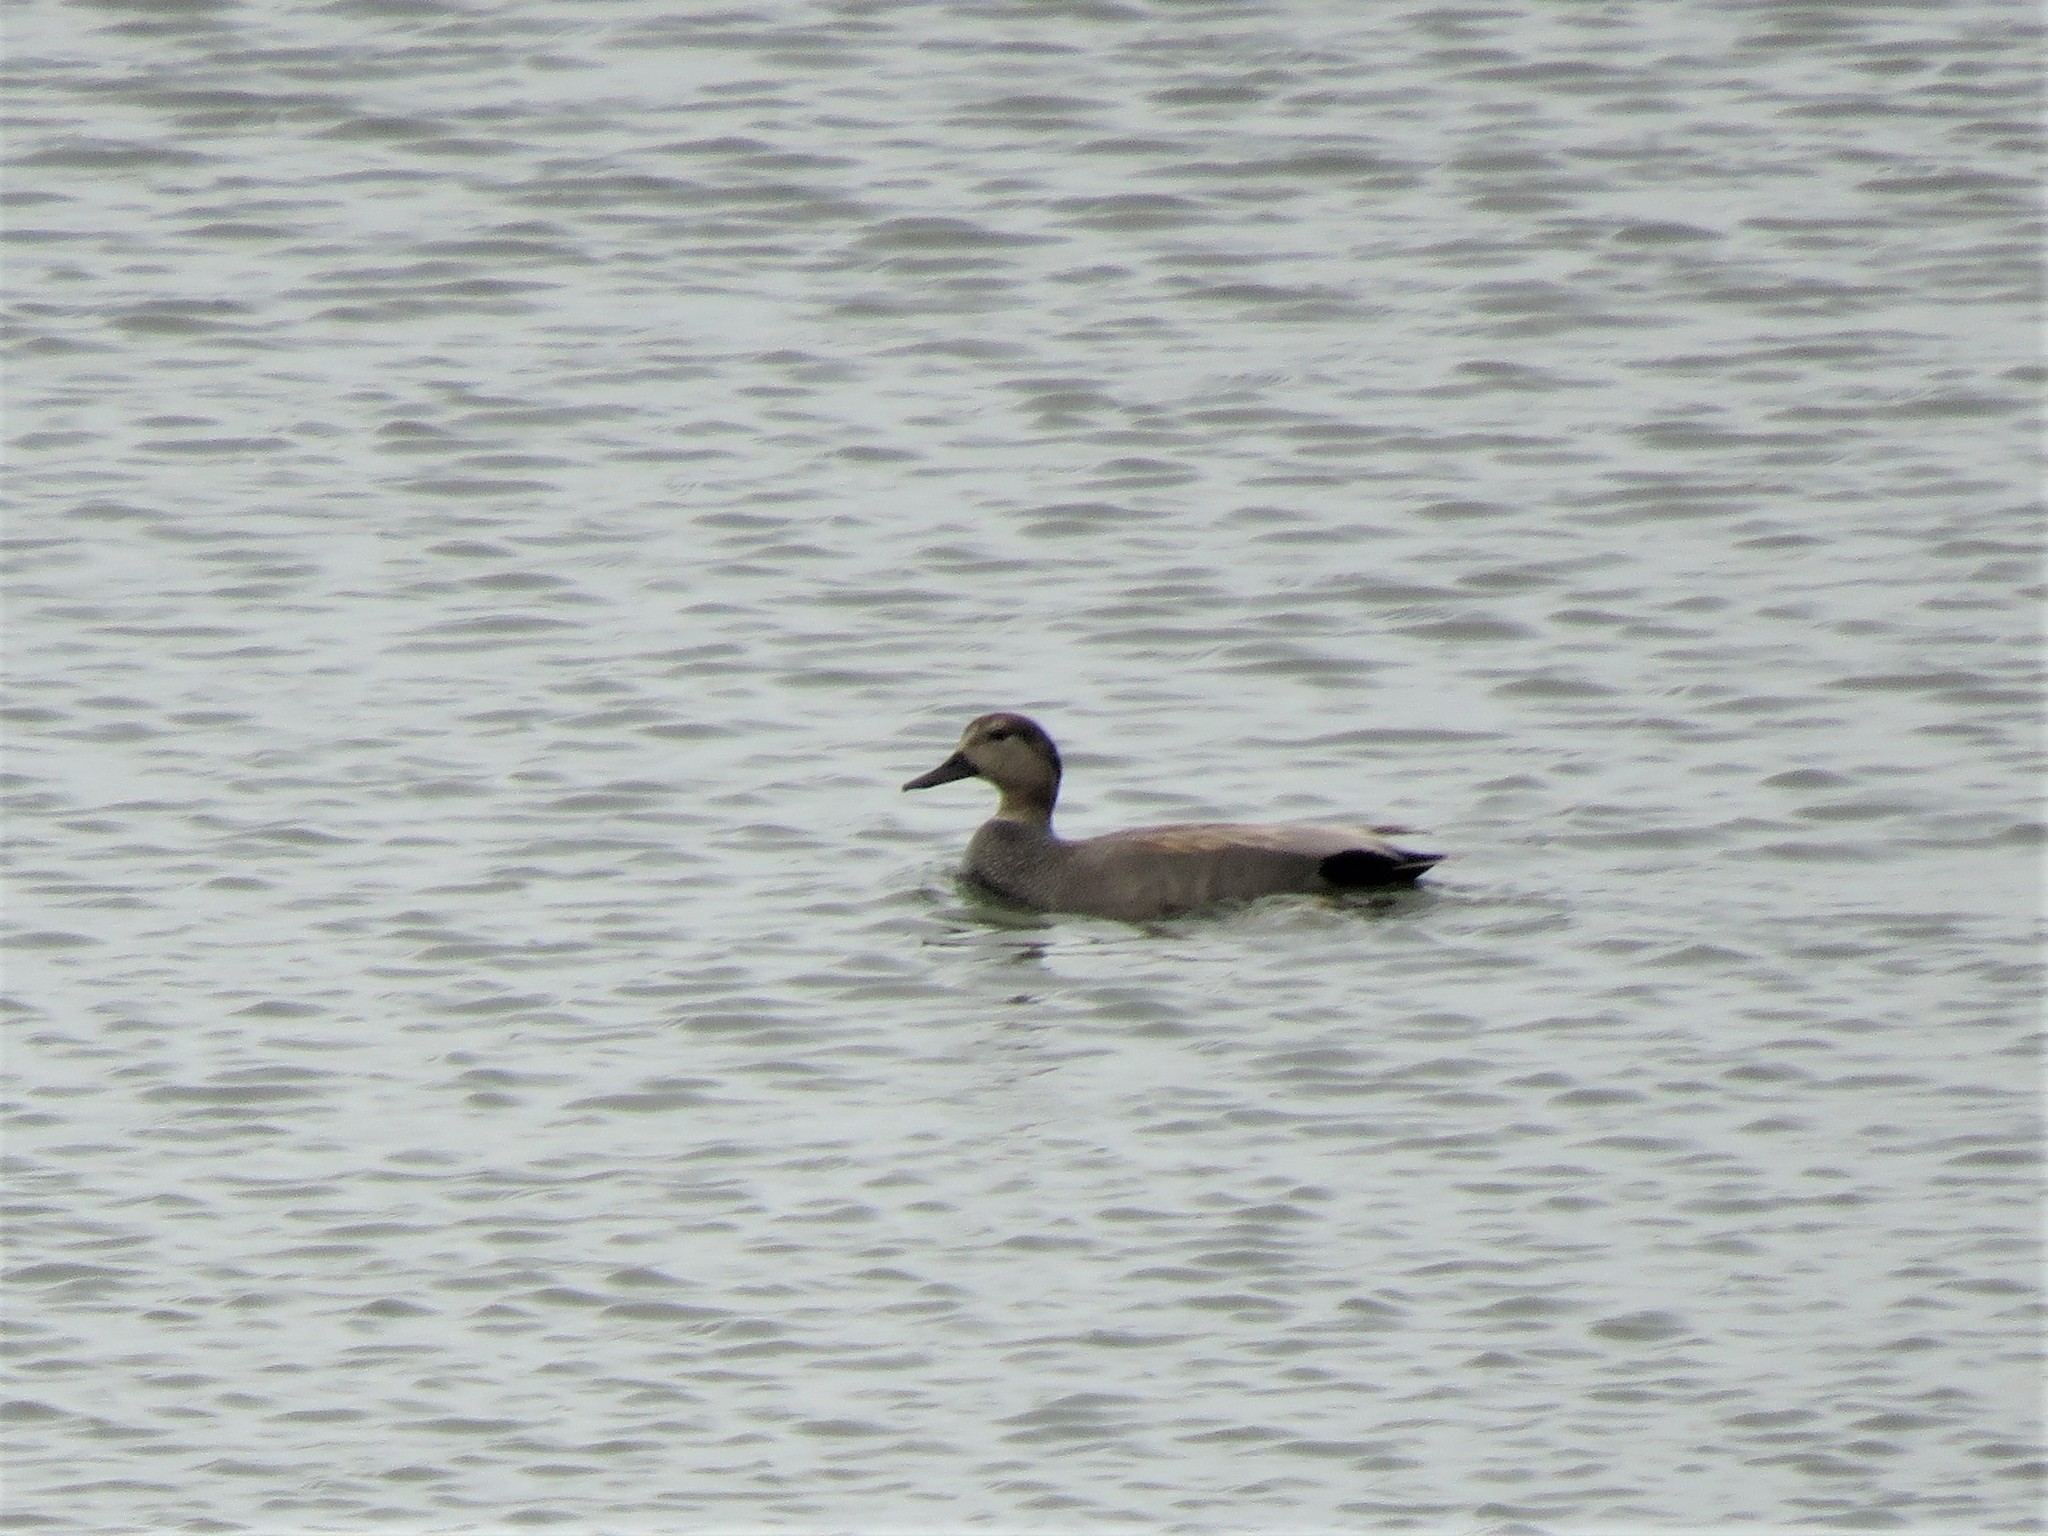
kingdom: Animalia
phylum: Chordata
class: Aves
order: Anseriformes
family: Anatidae
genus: Mareca
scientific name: Mareca strepera
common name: Gadwall
